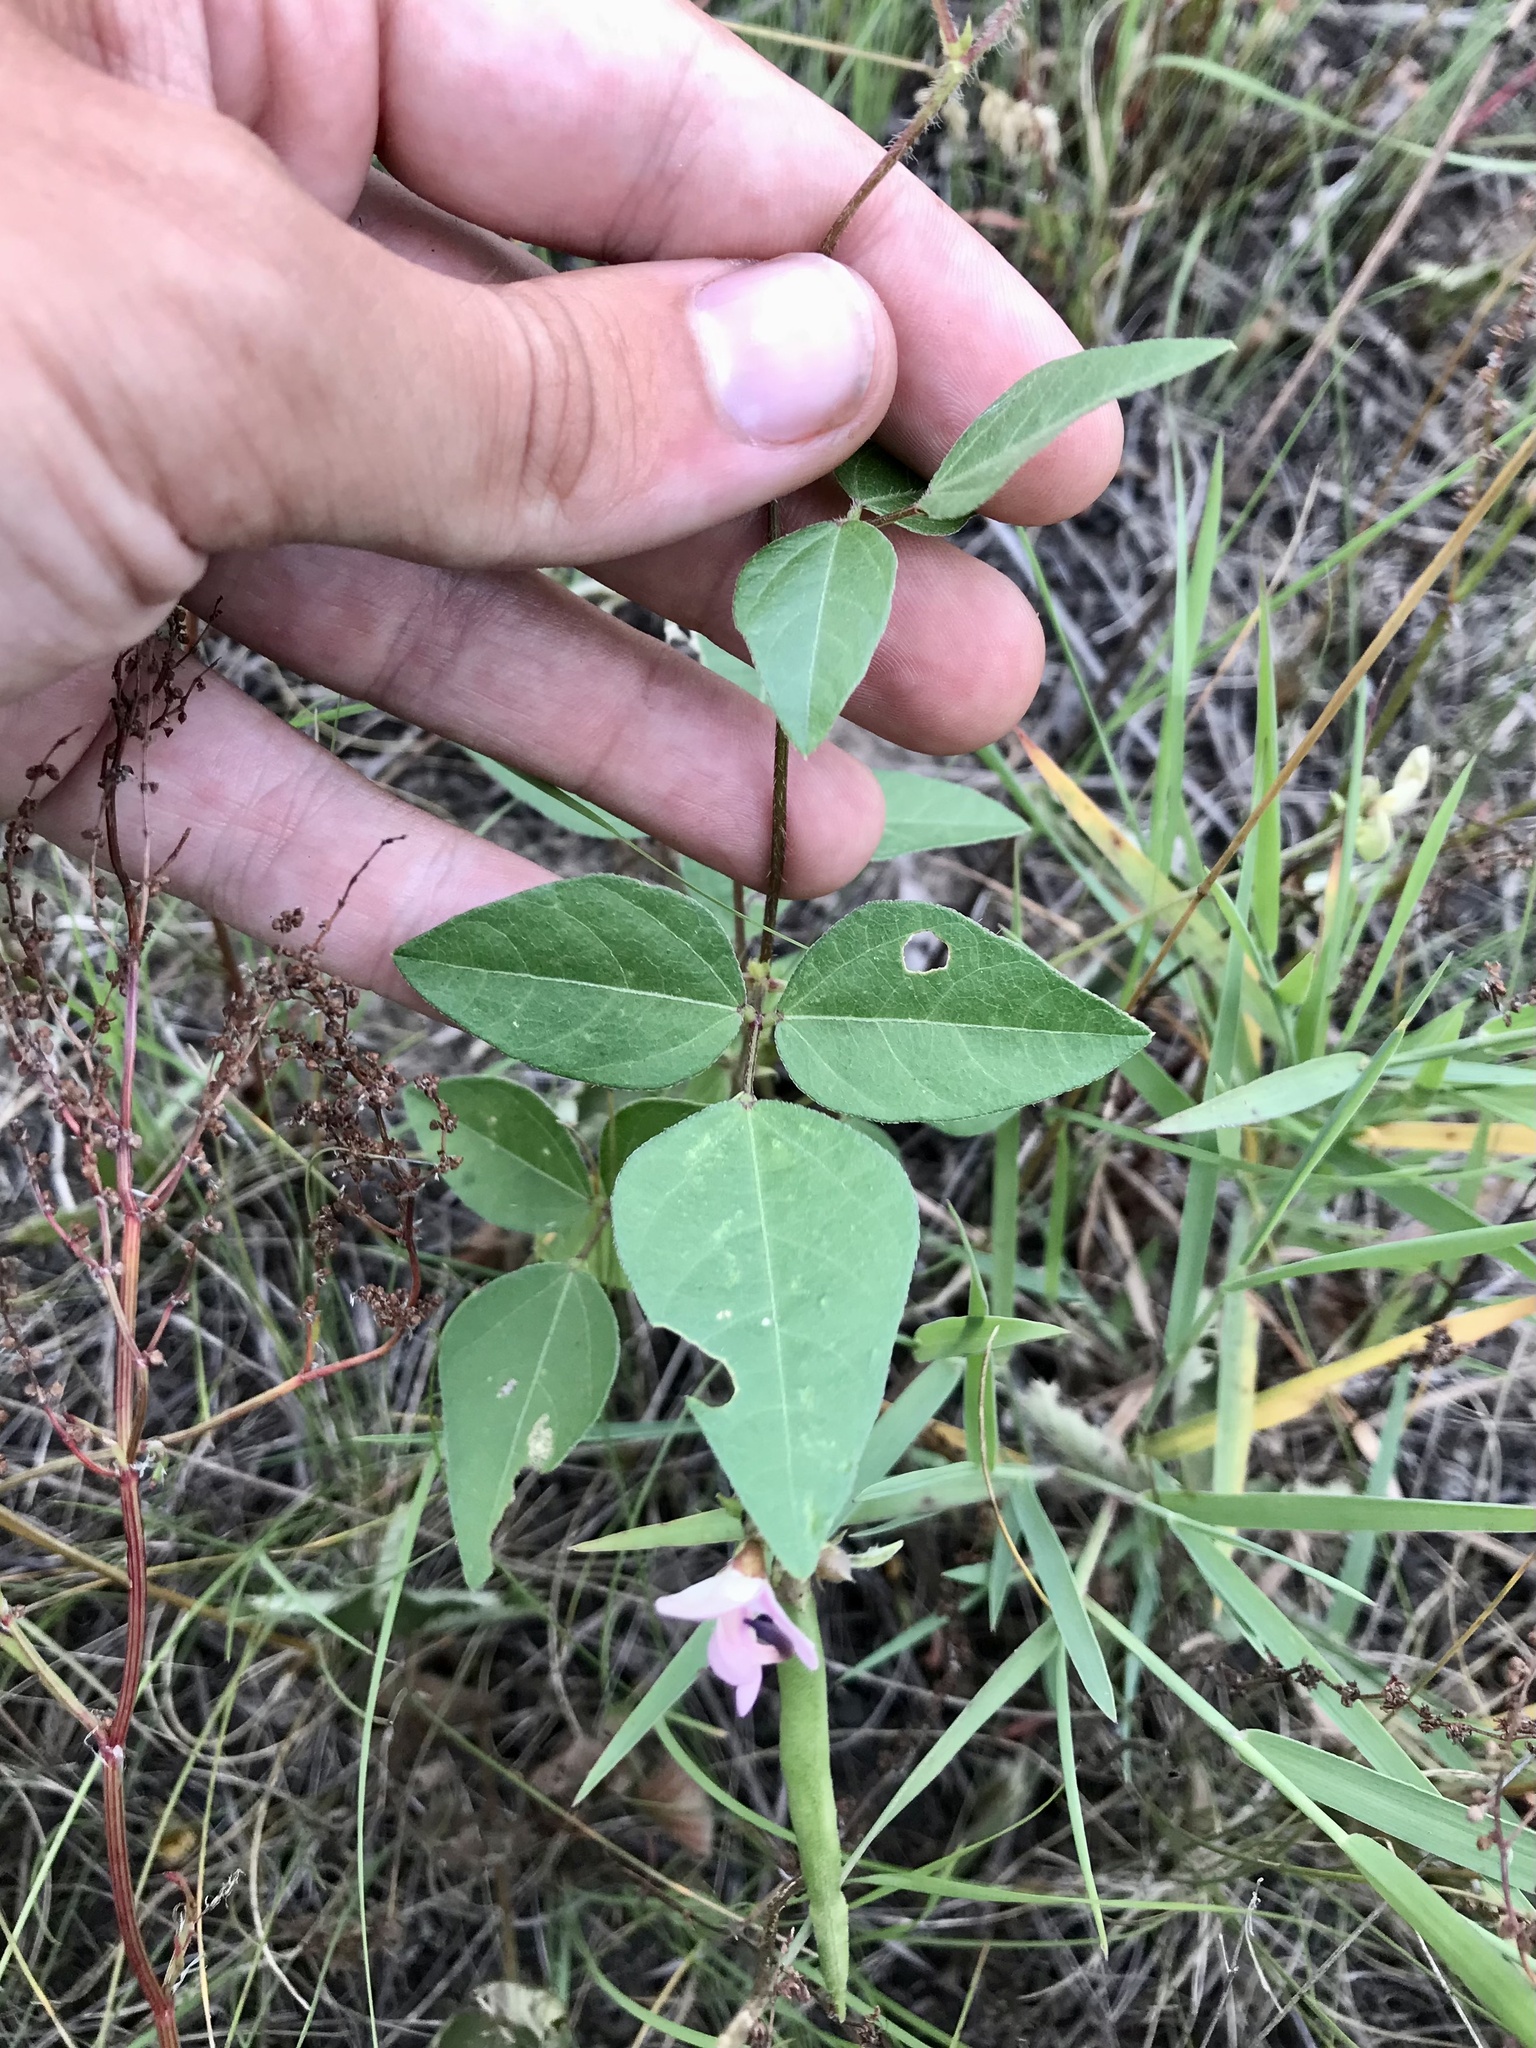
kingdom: Plantae
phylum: Tracheophyta
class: Magnoliopsida
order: Fabales
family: Fabaceae
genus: Strophostyles
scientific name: Strophostyles helvola
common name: Trailing wild bean
